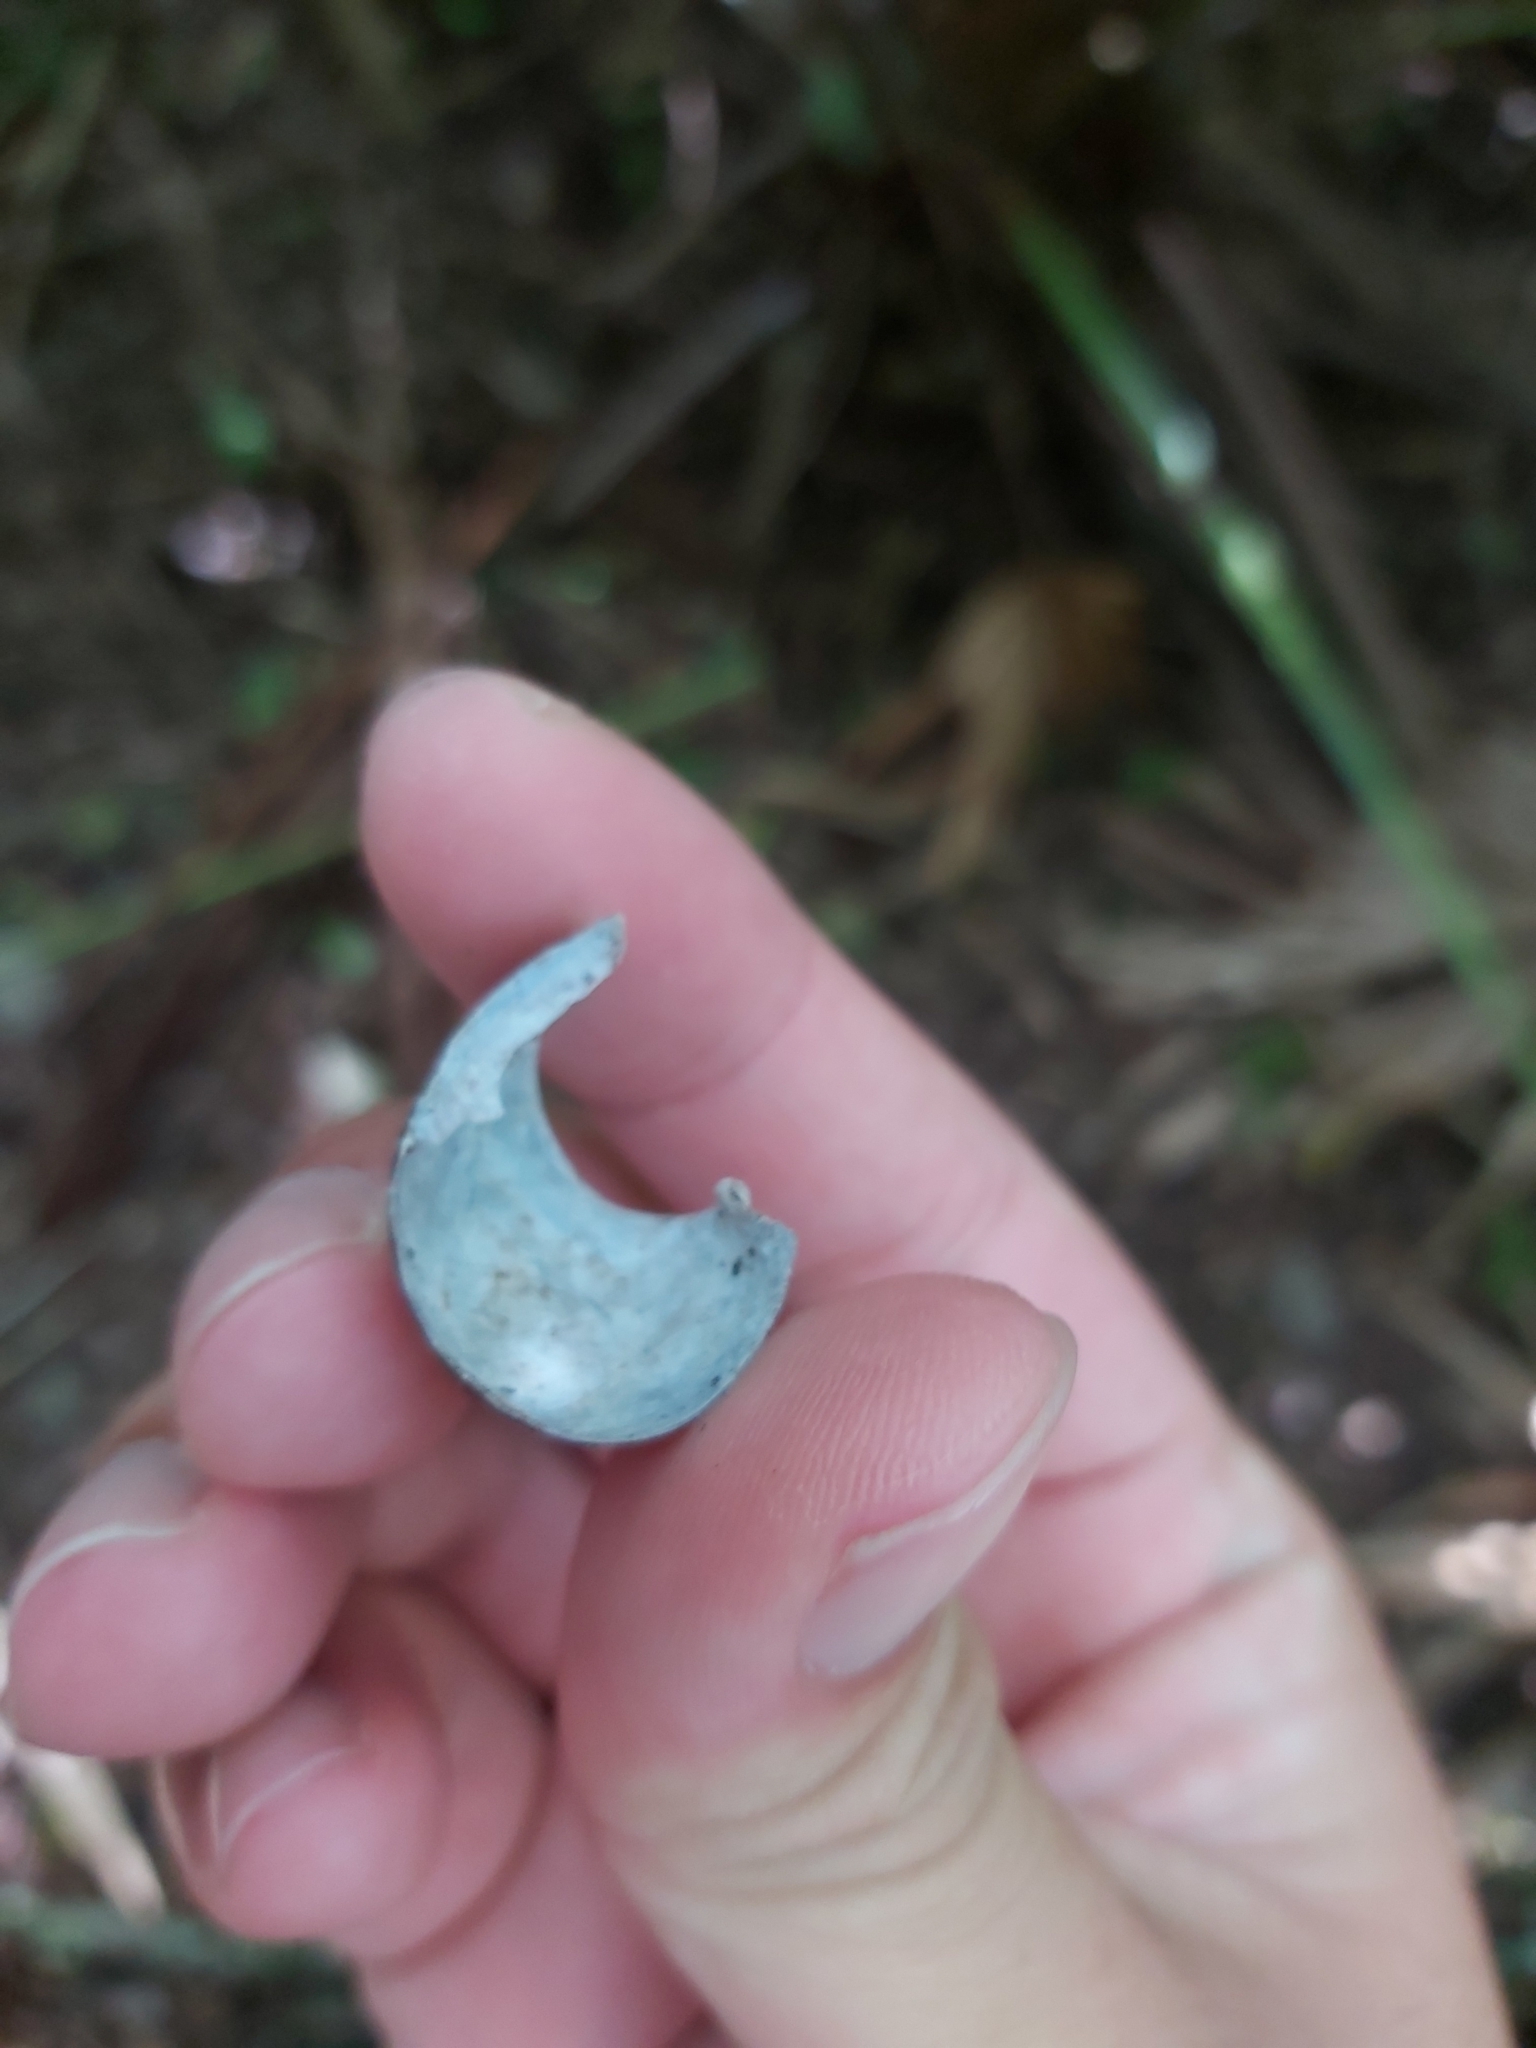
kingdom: Animalia
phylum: Mollusca
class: Gastropoda
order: Stylommatophora
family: Camaenidae
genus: Sauroconcha
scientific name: Sauroconcha gulosa
